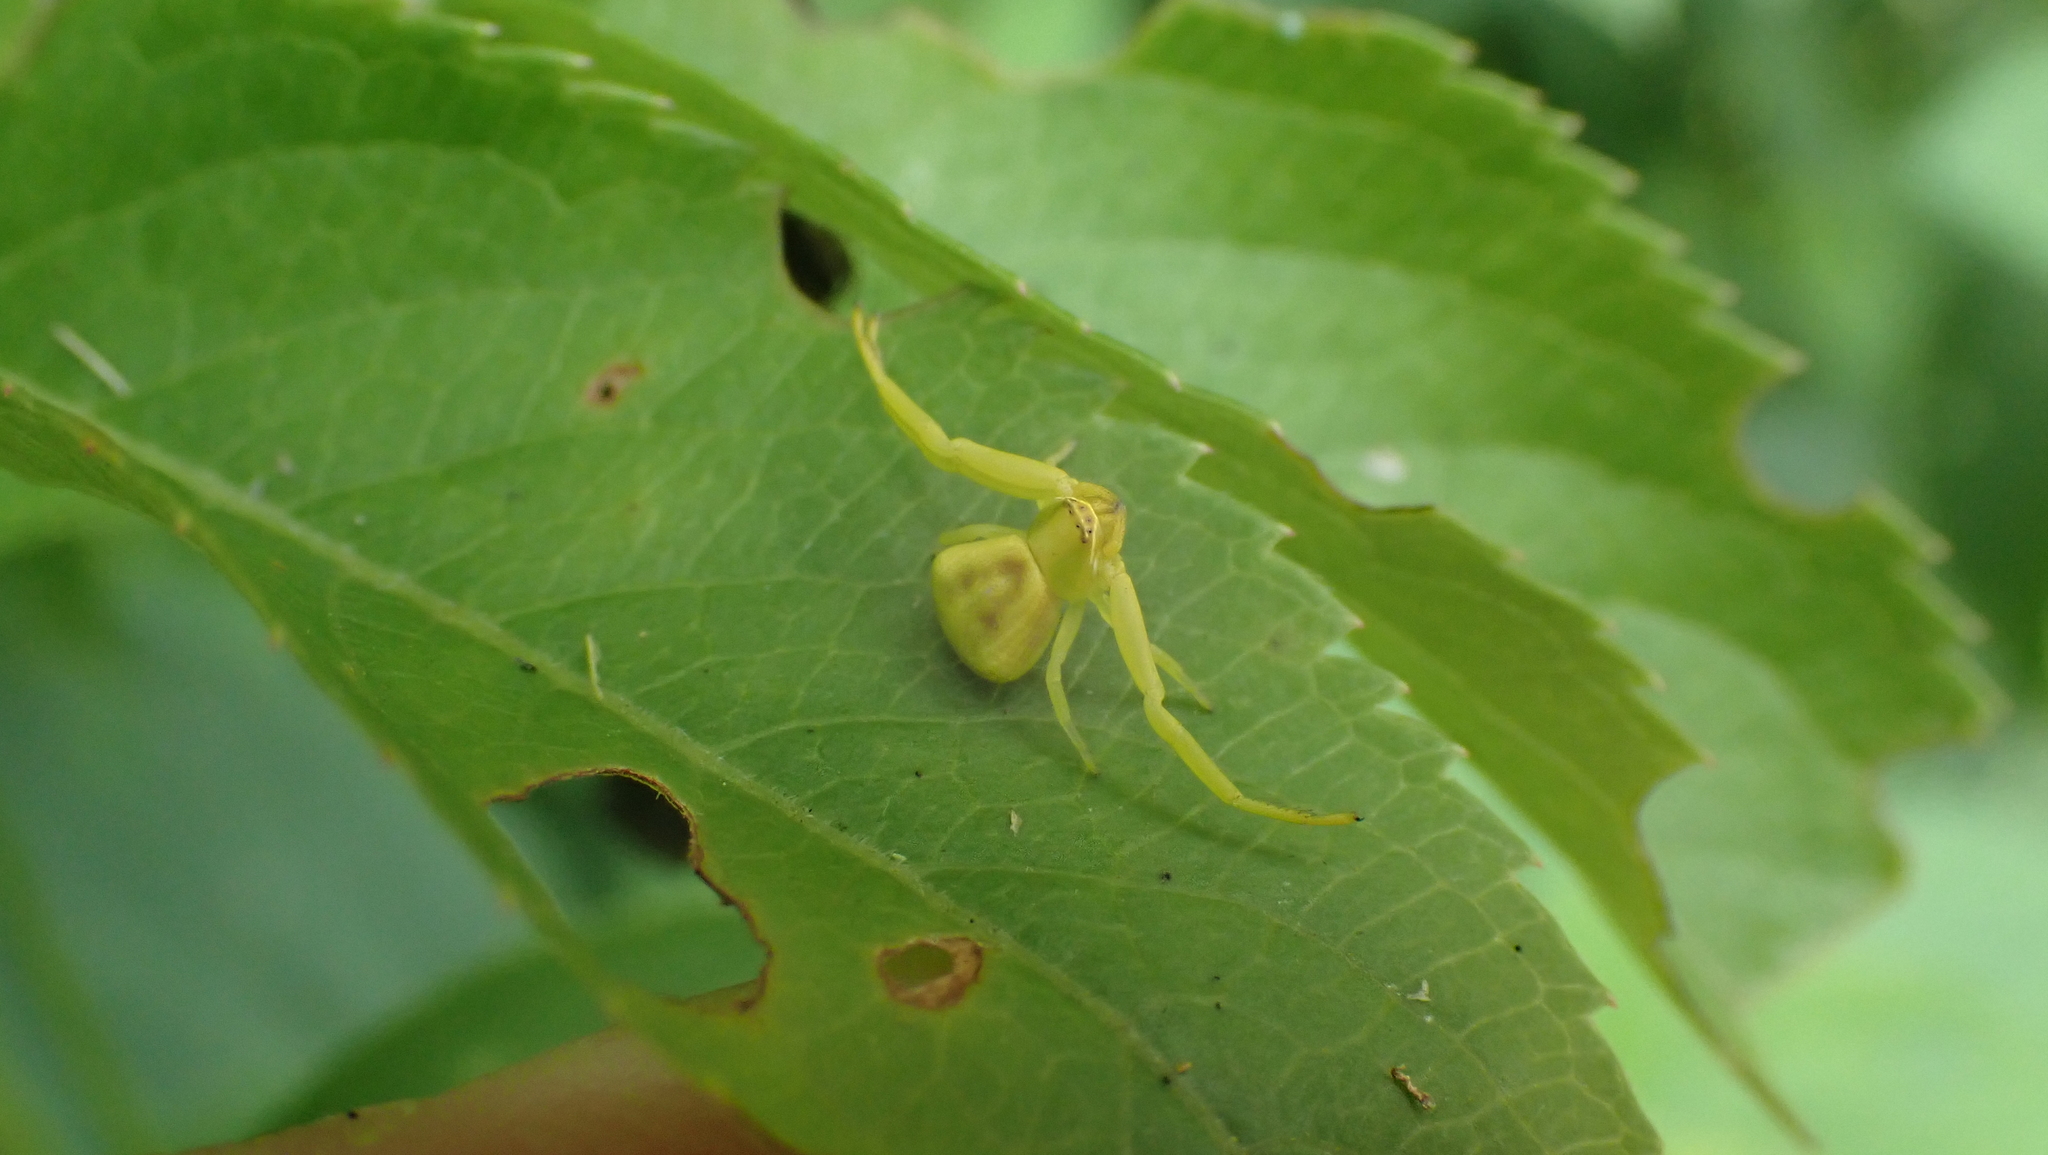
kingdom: Animalia
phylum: Arthropoda
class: Arachnida
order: Araneae
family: Thomisidae
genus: Misumenoides
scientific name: Misumenoides formosipes
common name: White-banded crab spider
